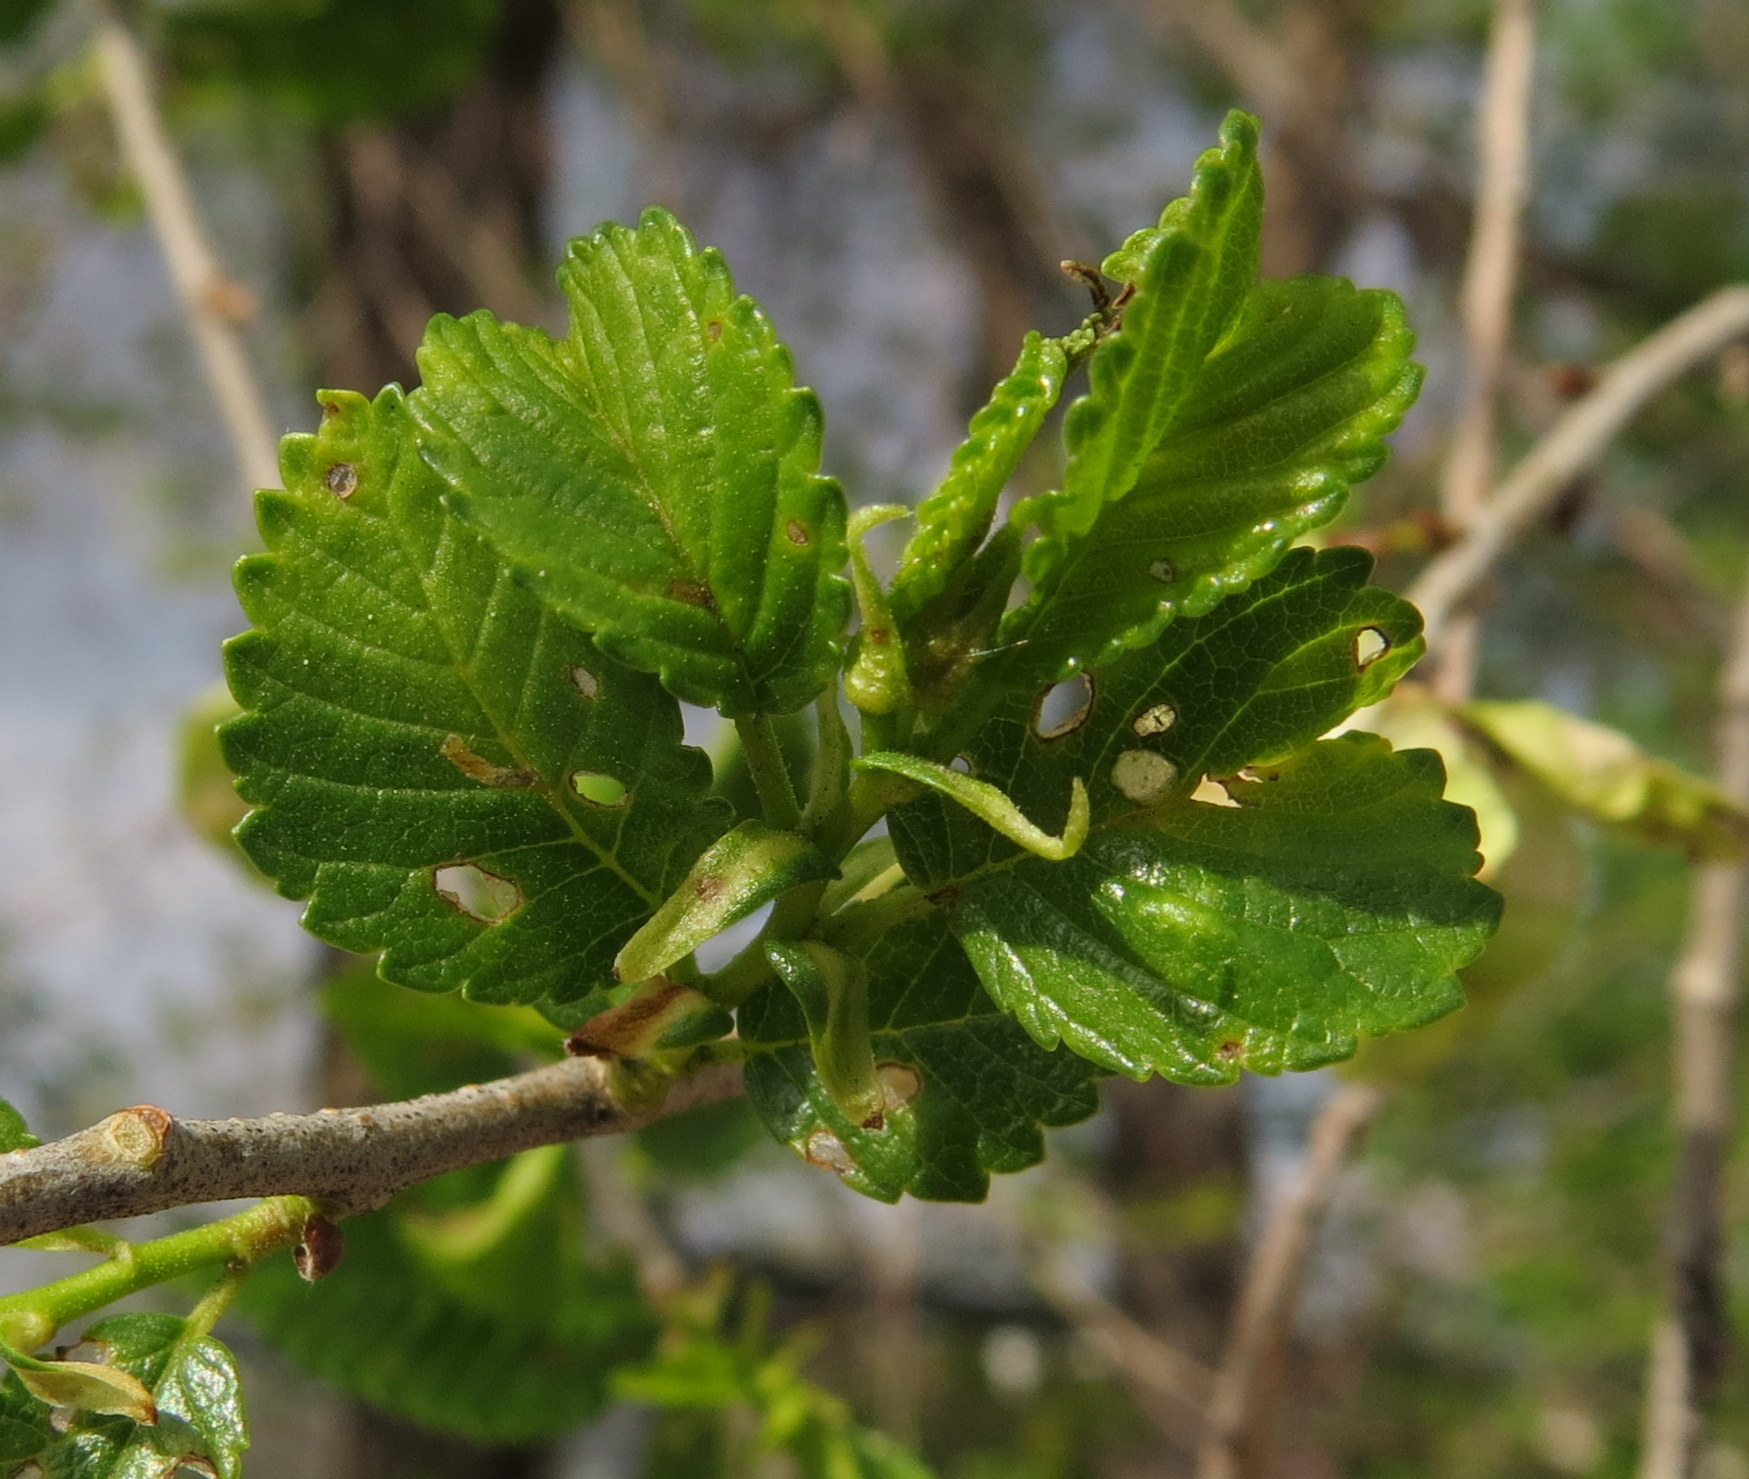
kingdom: Plantae
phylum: Tracheophyta
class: Magnoliopsida
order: Rosales
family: Ulmaceae
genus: Ulmus
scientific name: Ulmus pumila
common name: Siberian elm
